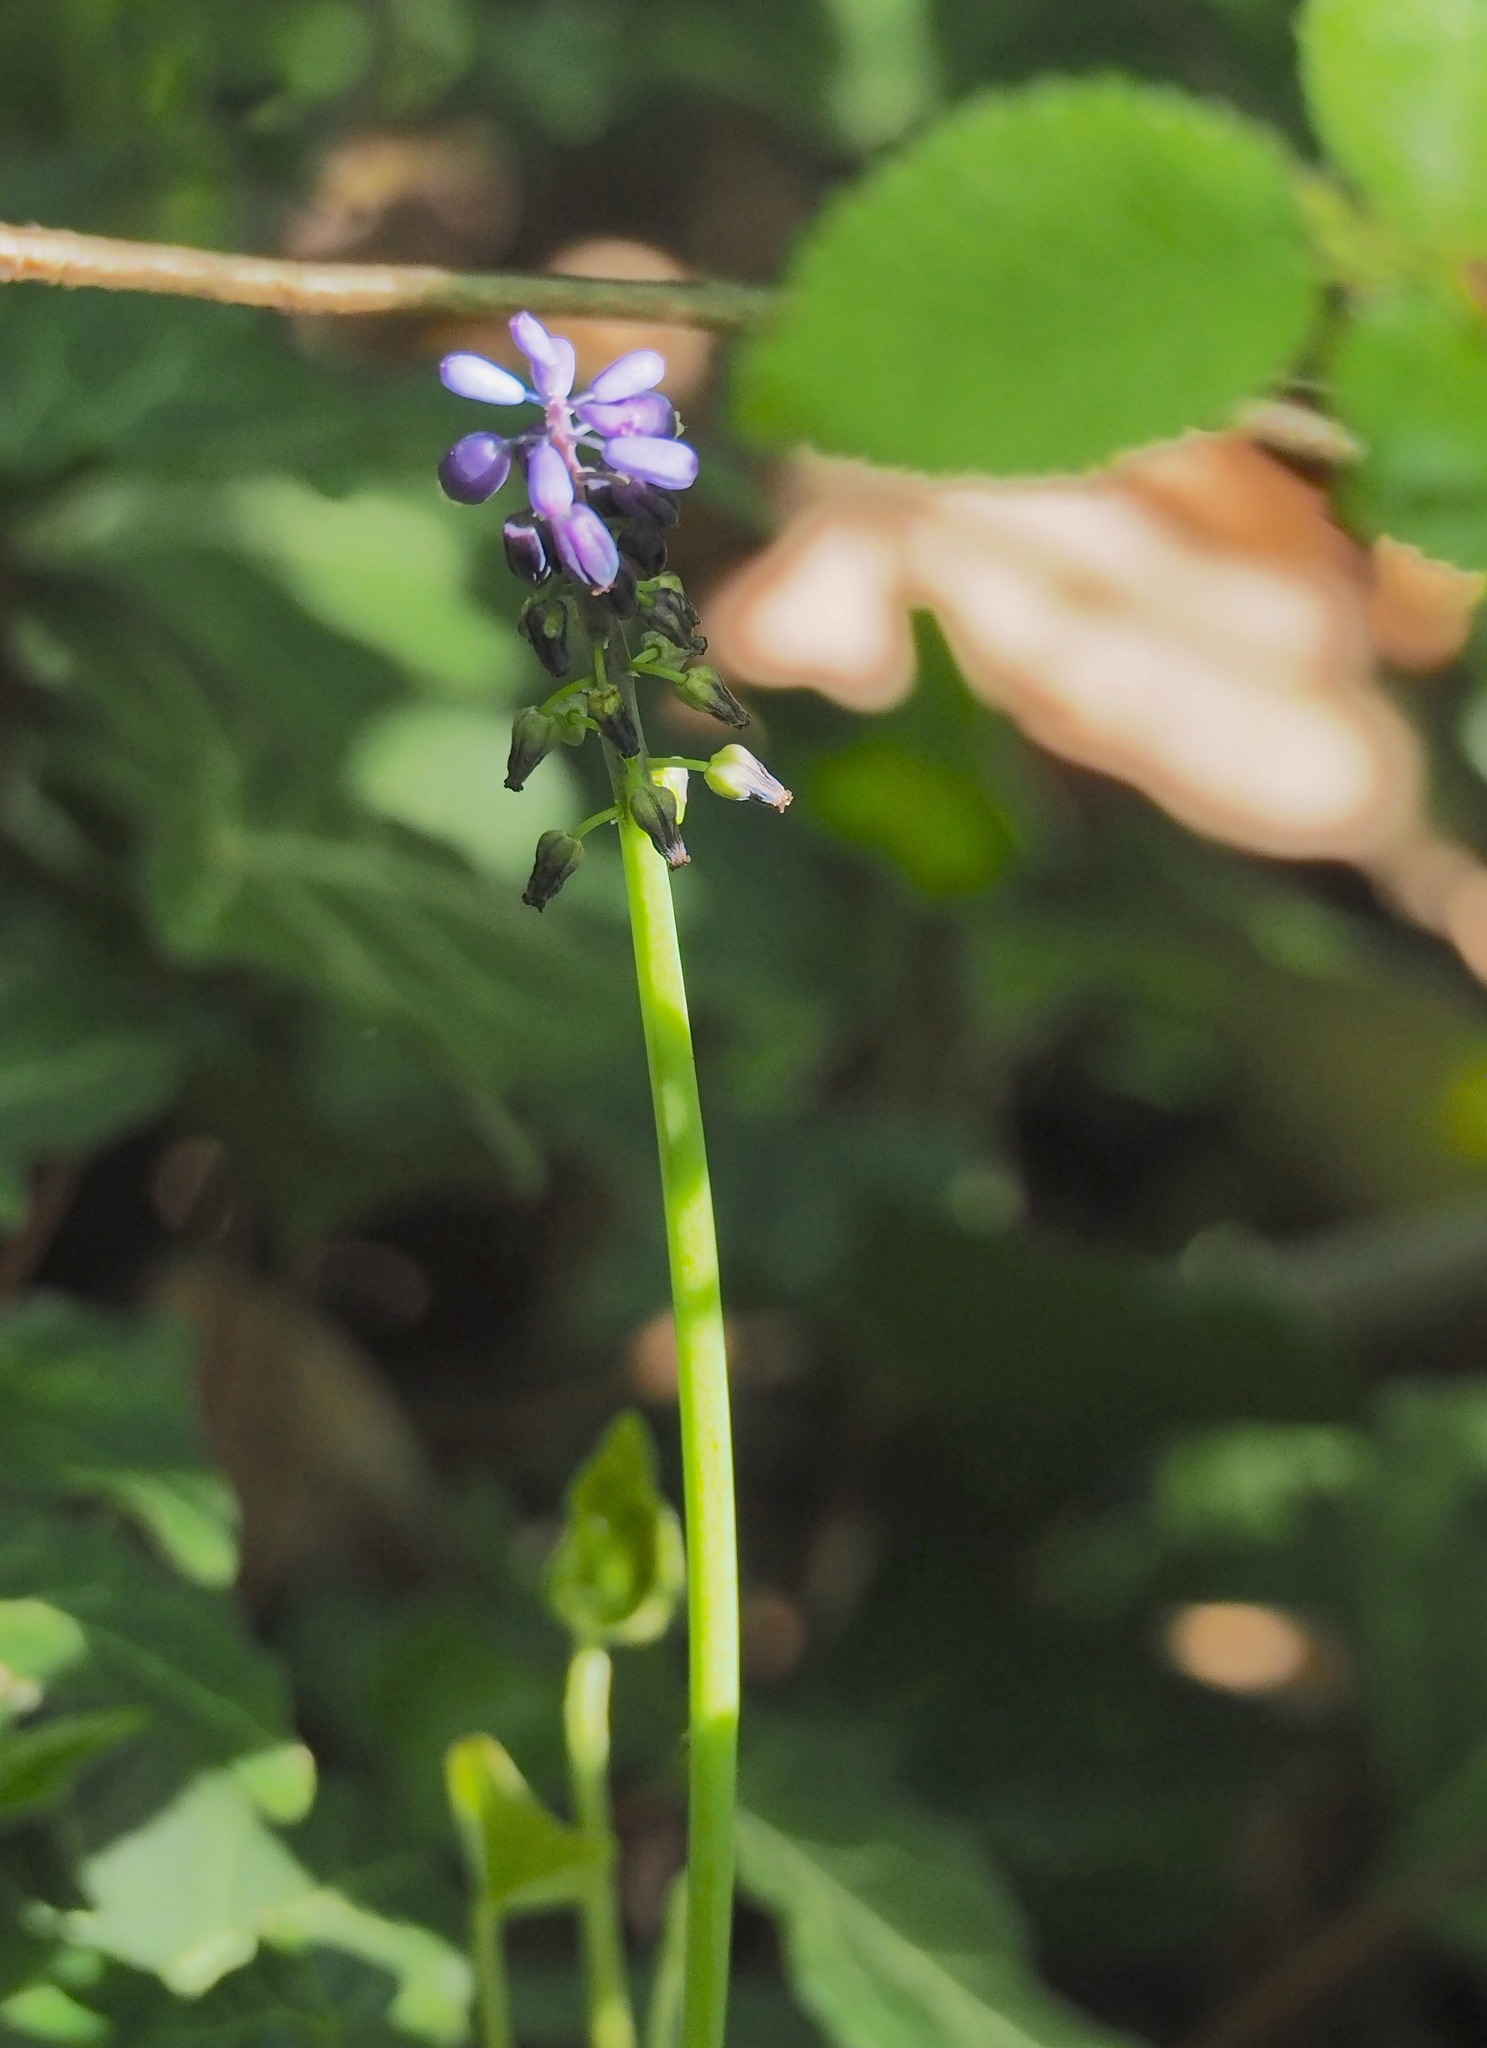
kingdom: Plantae
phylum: Tracheophyta
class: Liliopsida
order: Asparagales
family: Asparagaceae
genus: Muscari
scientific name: Muscari neglectum
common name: Grape-hyacinth
